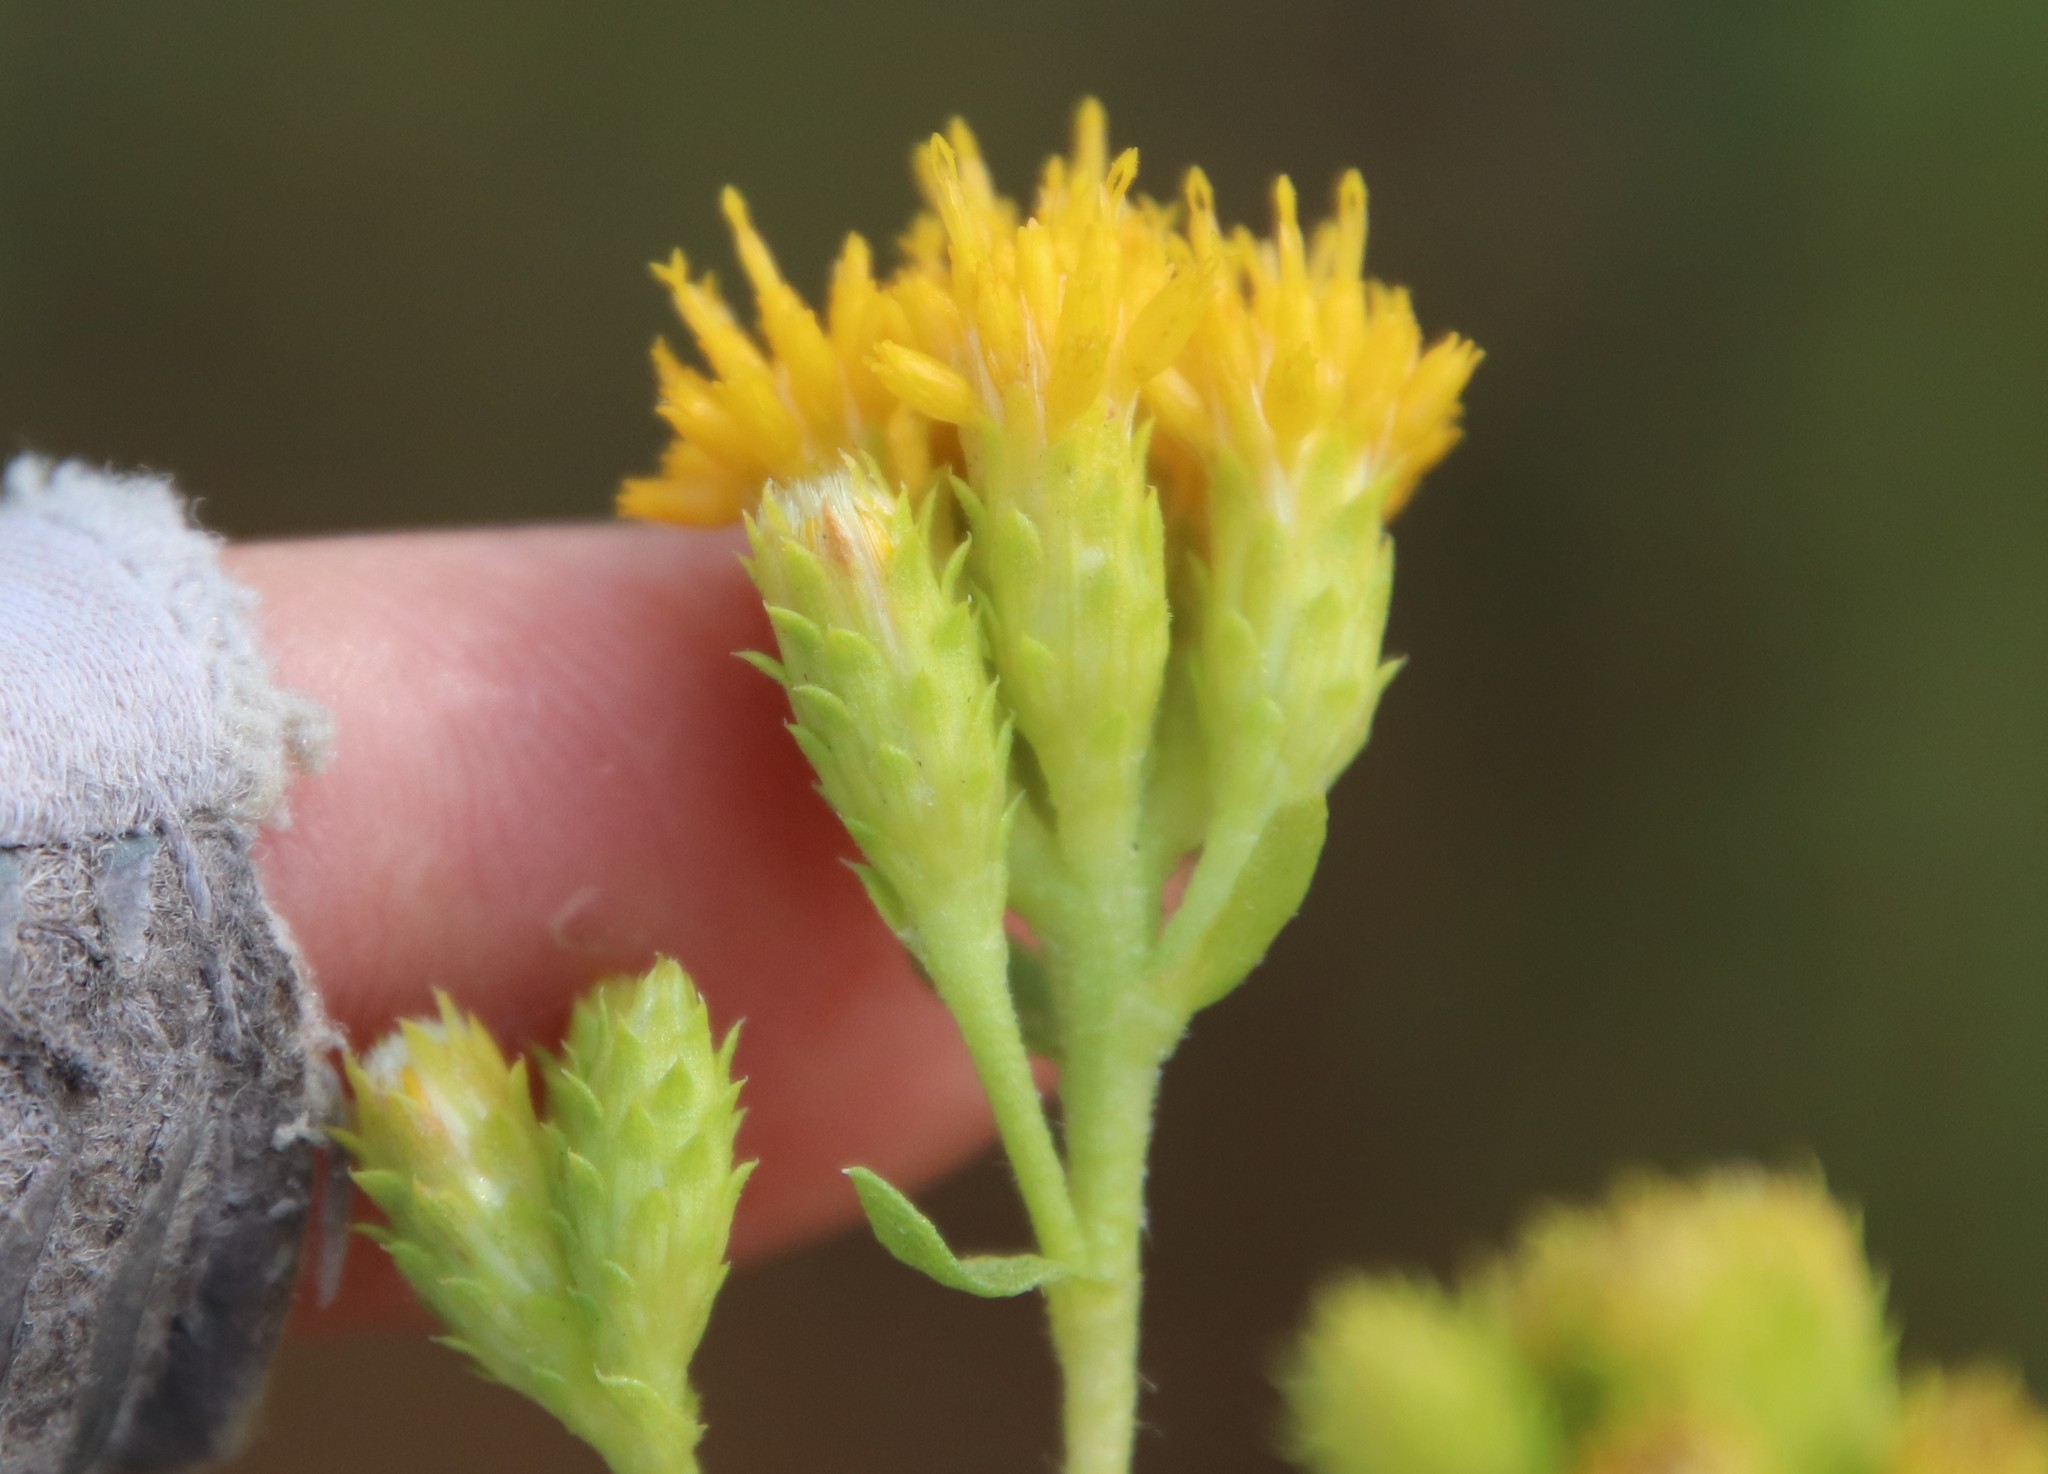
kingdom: Plantae
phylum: Tracheophyta
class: Magnoliopsida
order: Asterales
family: Asteraceae
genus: Isocoma
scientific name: Isocoma menziesii
